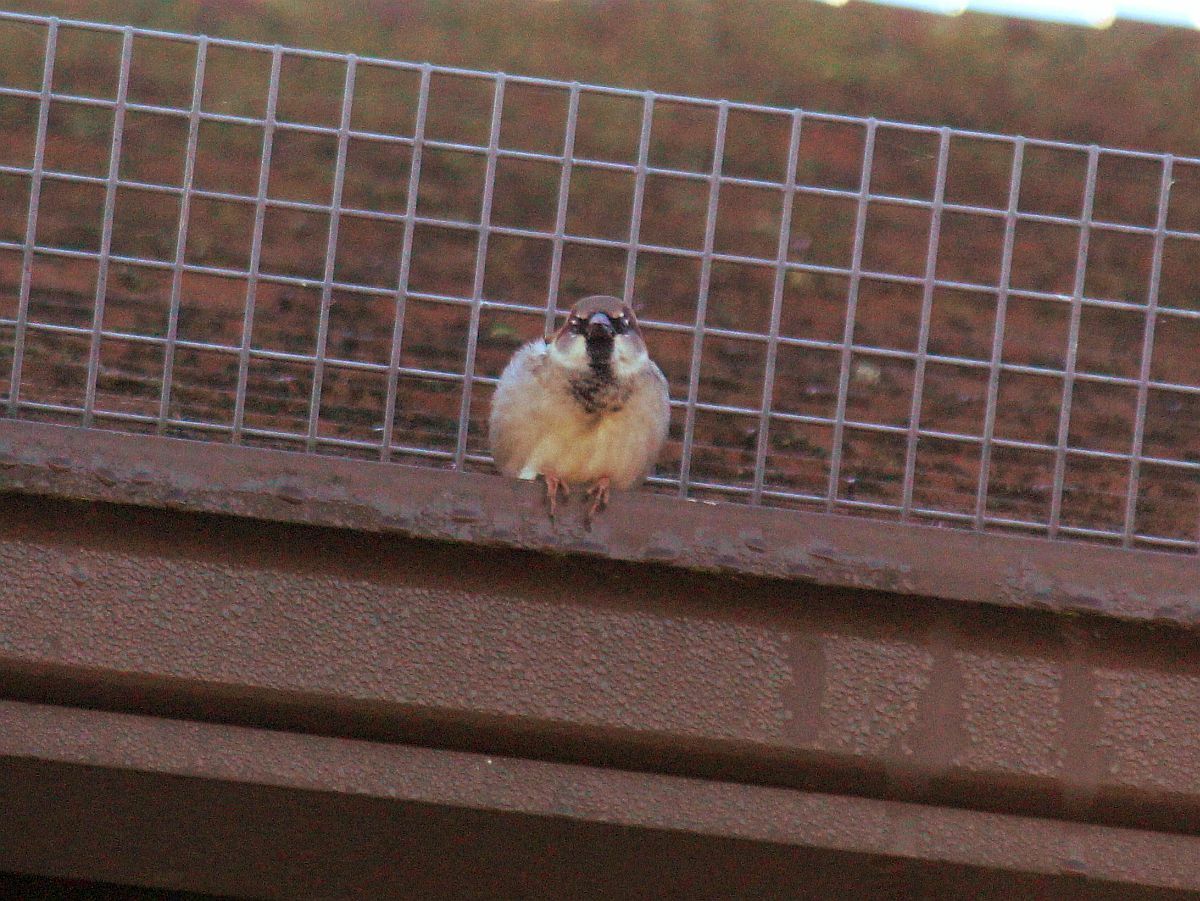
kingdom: Animalia
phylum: Chordata
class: Aves
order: Passeriformes
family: Passeridae
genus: Passer
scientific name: Passer domesticus
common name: House sparrow
